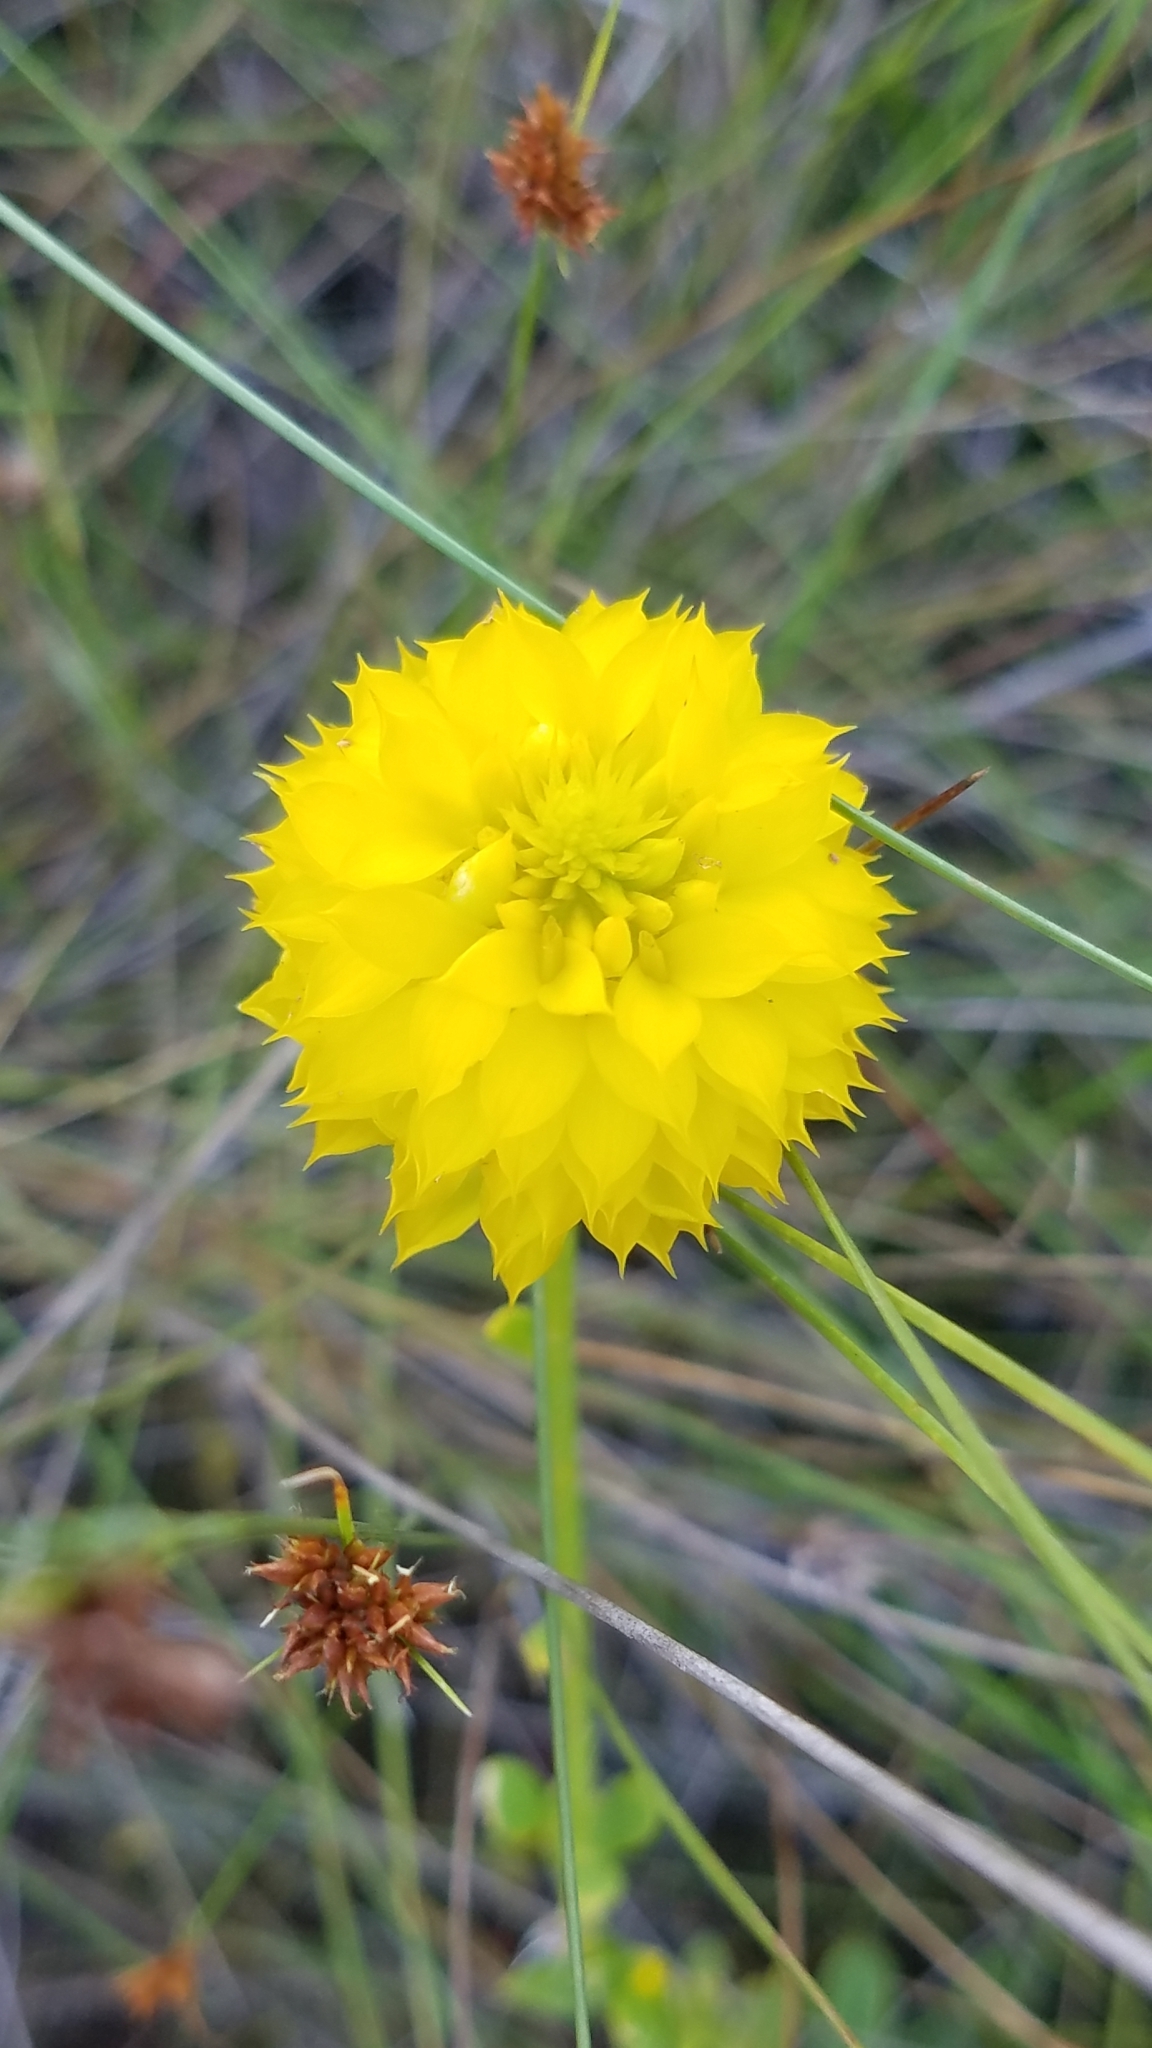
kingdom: Plantae
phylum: Tracheophyta
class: Magnoliopsida
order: Fabales
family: Polygalaceae
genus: Polygala
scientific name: Polygala rugelii
